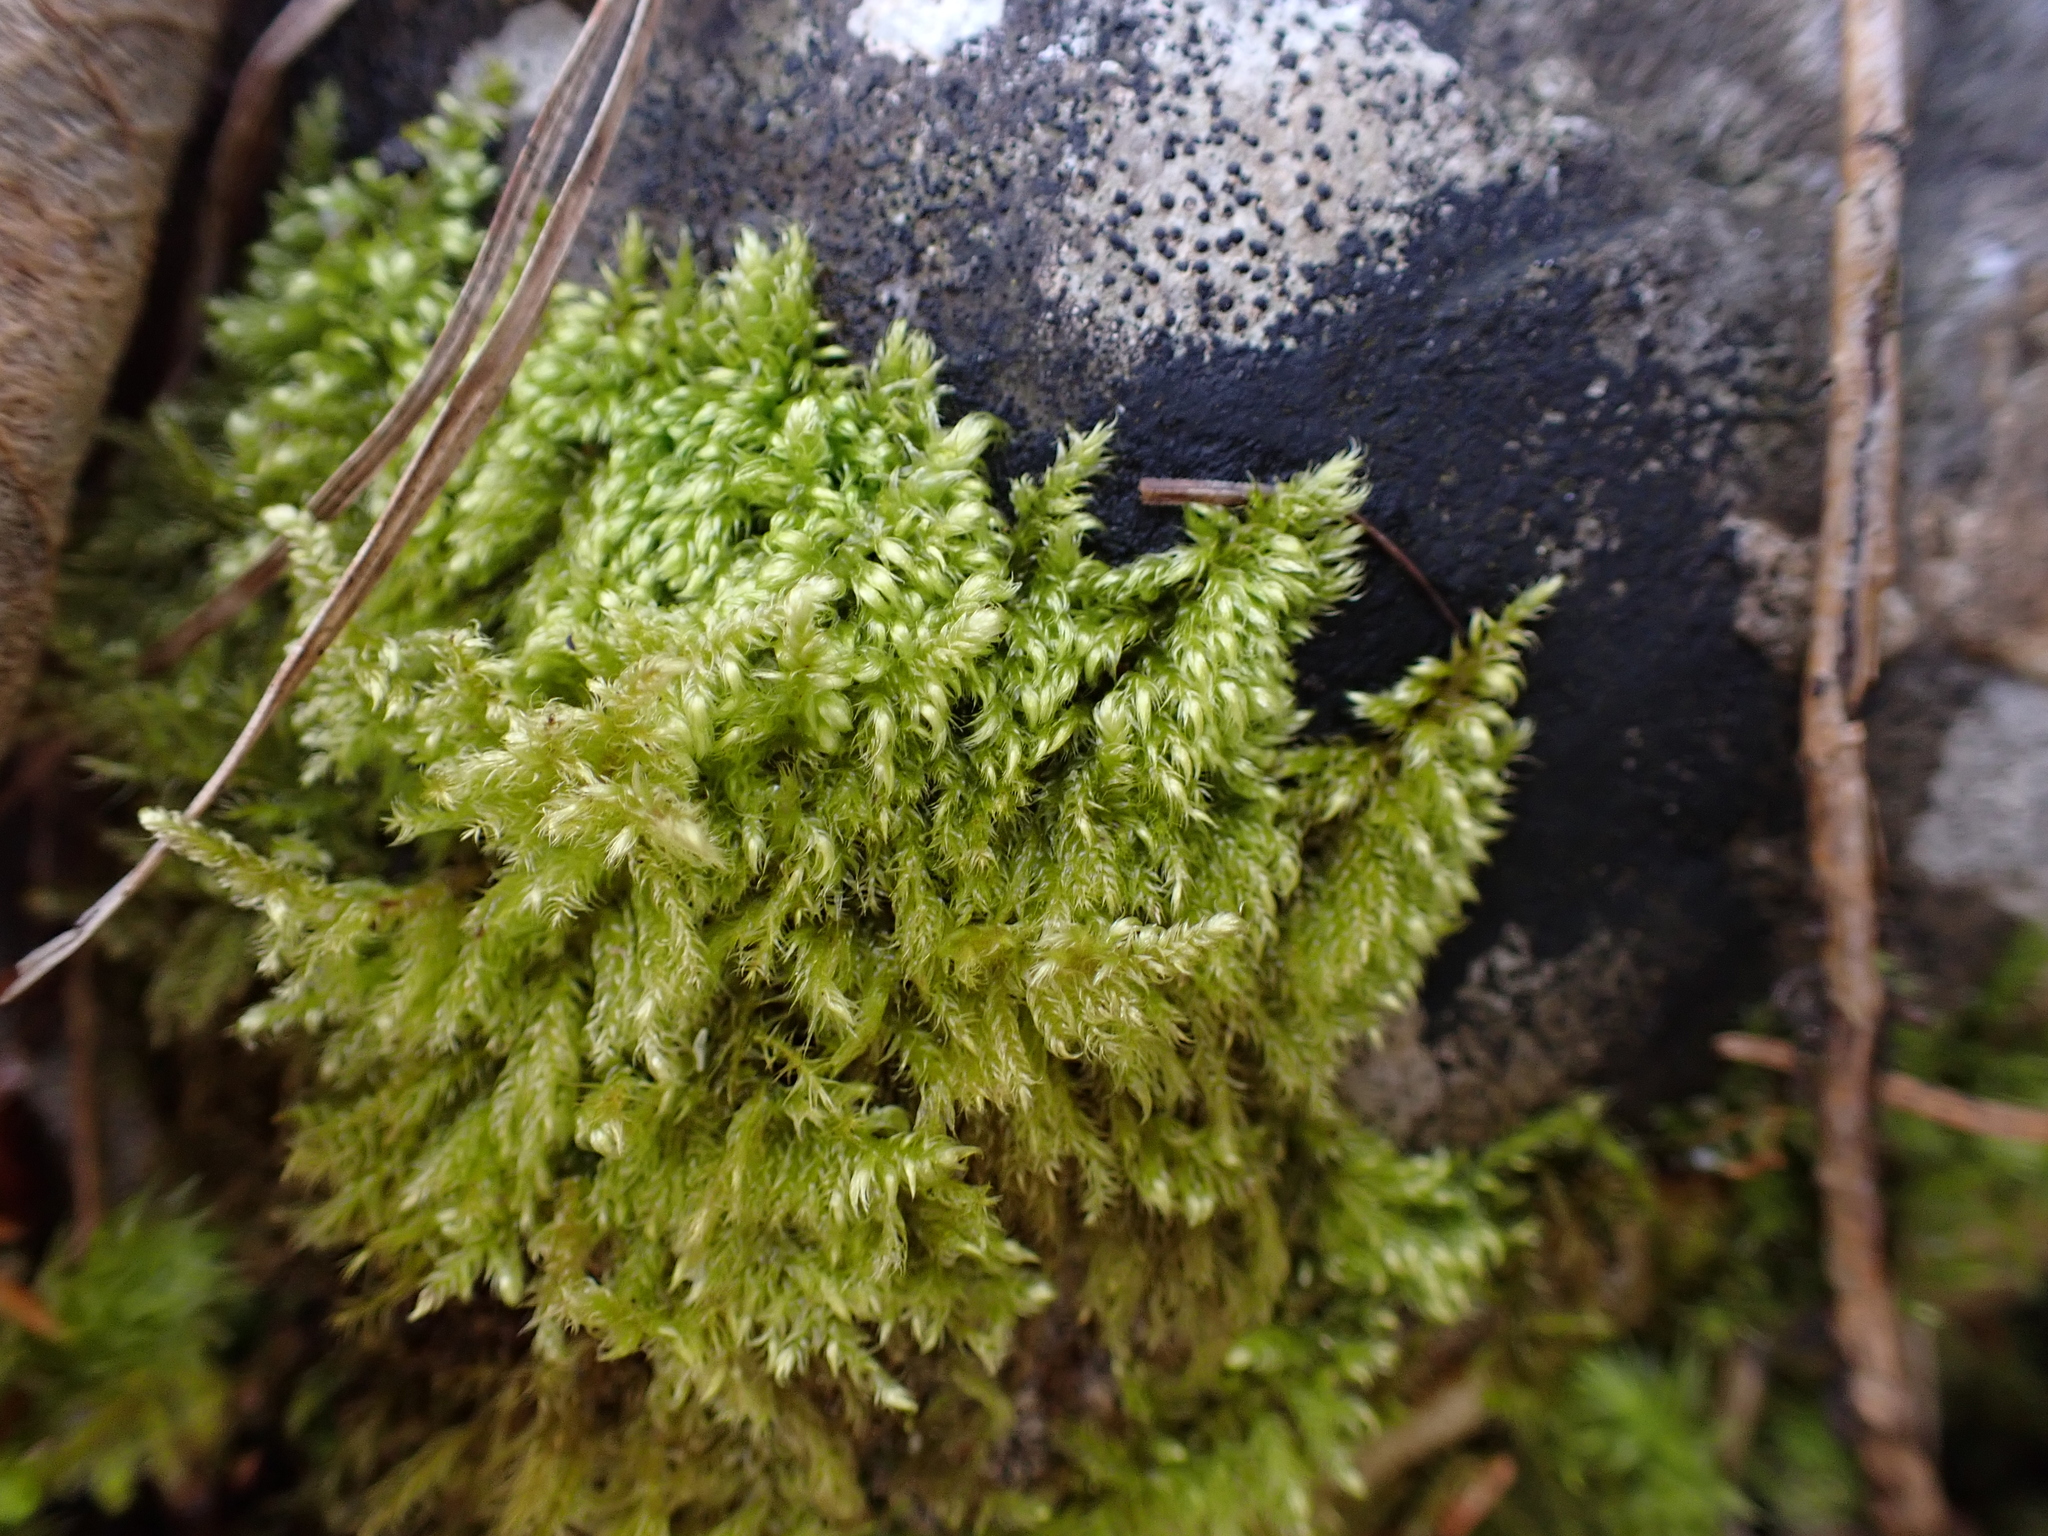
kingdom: Plantae
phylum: Bryophyta
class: Bryopsida
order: Hypnales
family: Myuriaceae
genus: Ctenidium
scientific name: Ctenidium molluscum
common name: Chalk comb-moss
